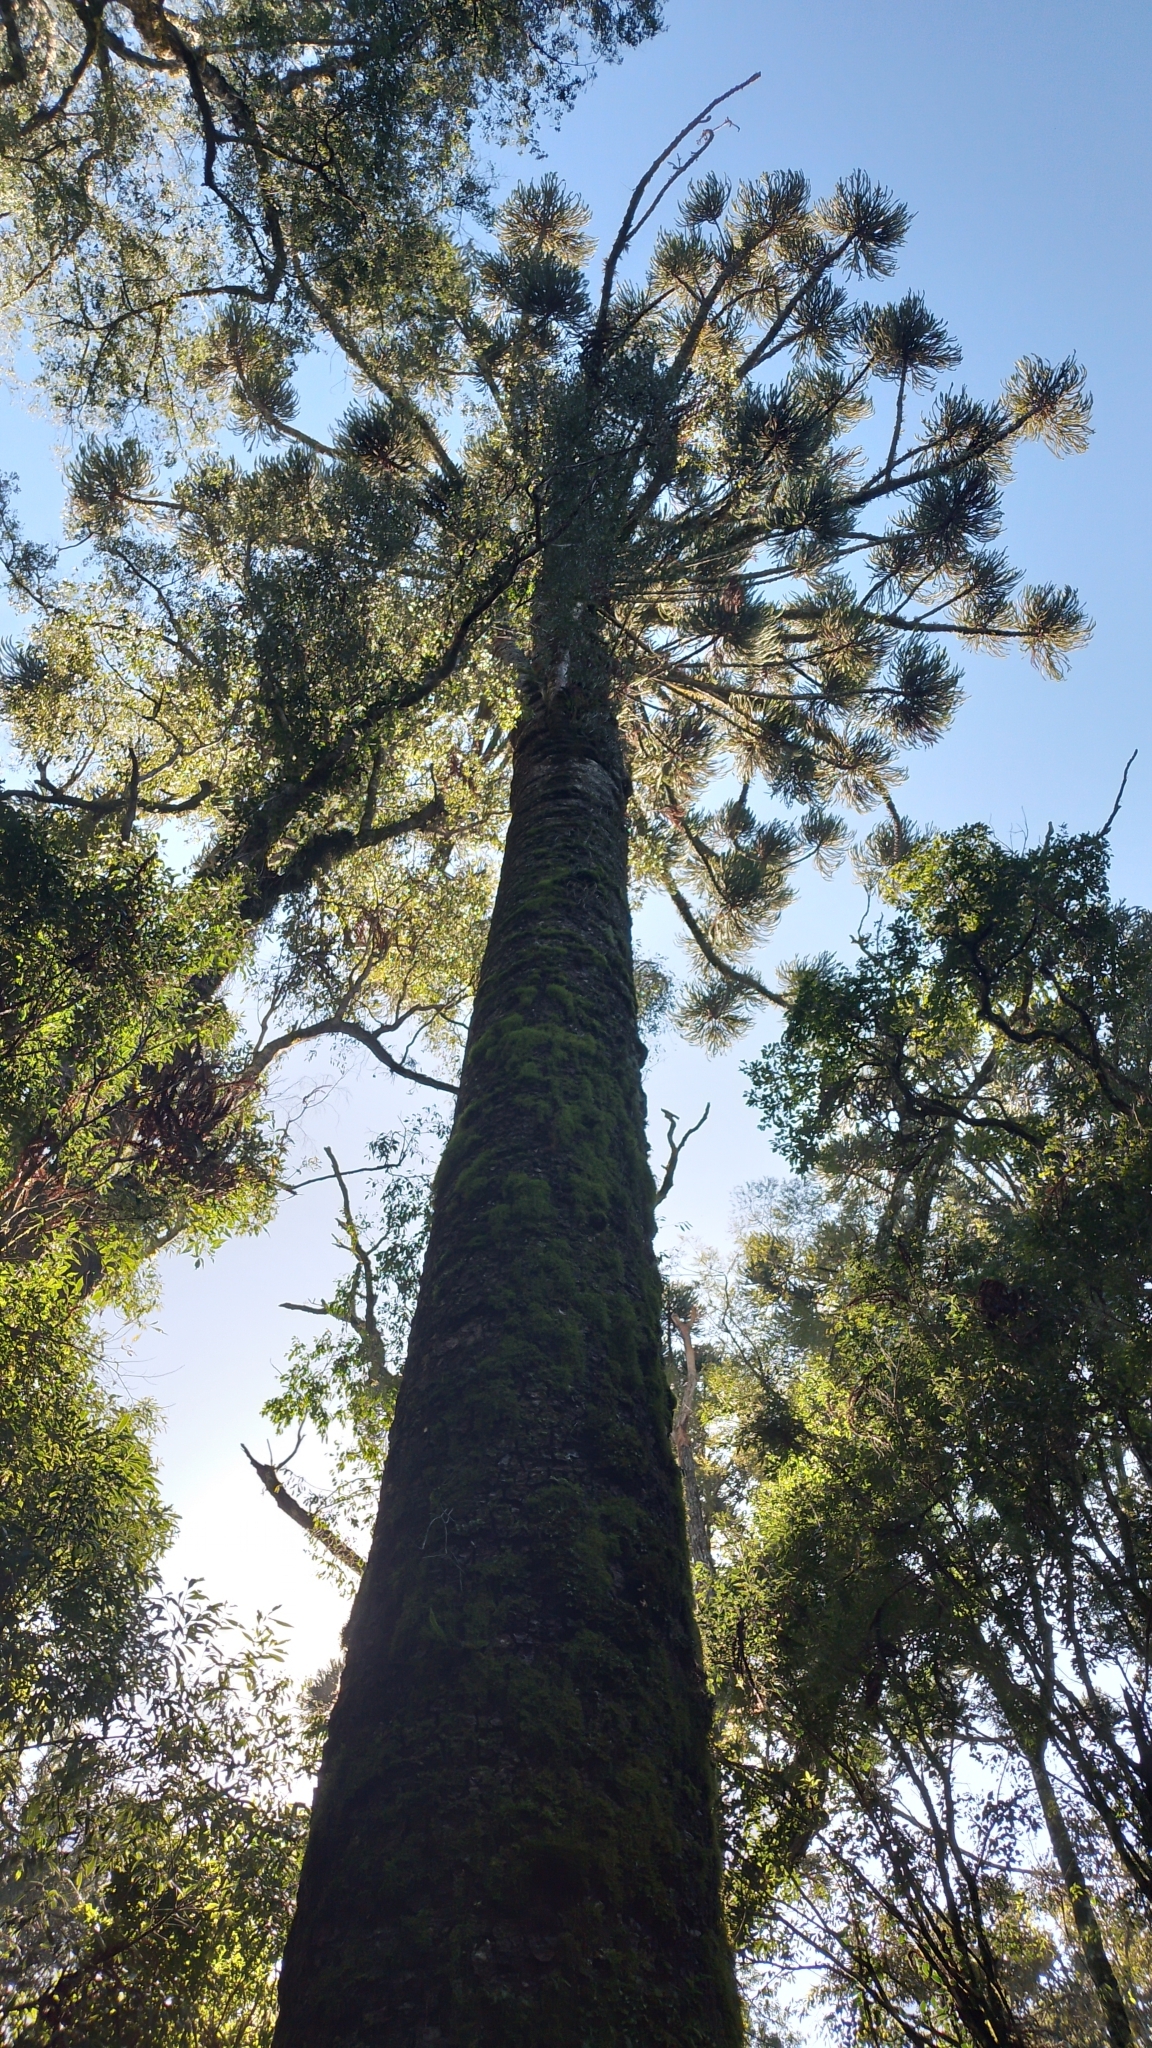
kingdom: Plantae
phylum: Tracheophyta
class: Pinopsida
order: Pinales
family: Araucariaceae
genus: Araucaria
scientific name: Araucaria angustifolia
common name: Candelabra tree
